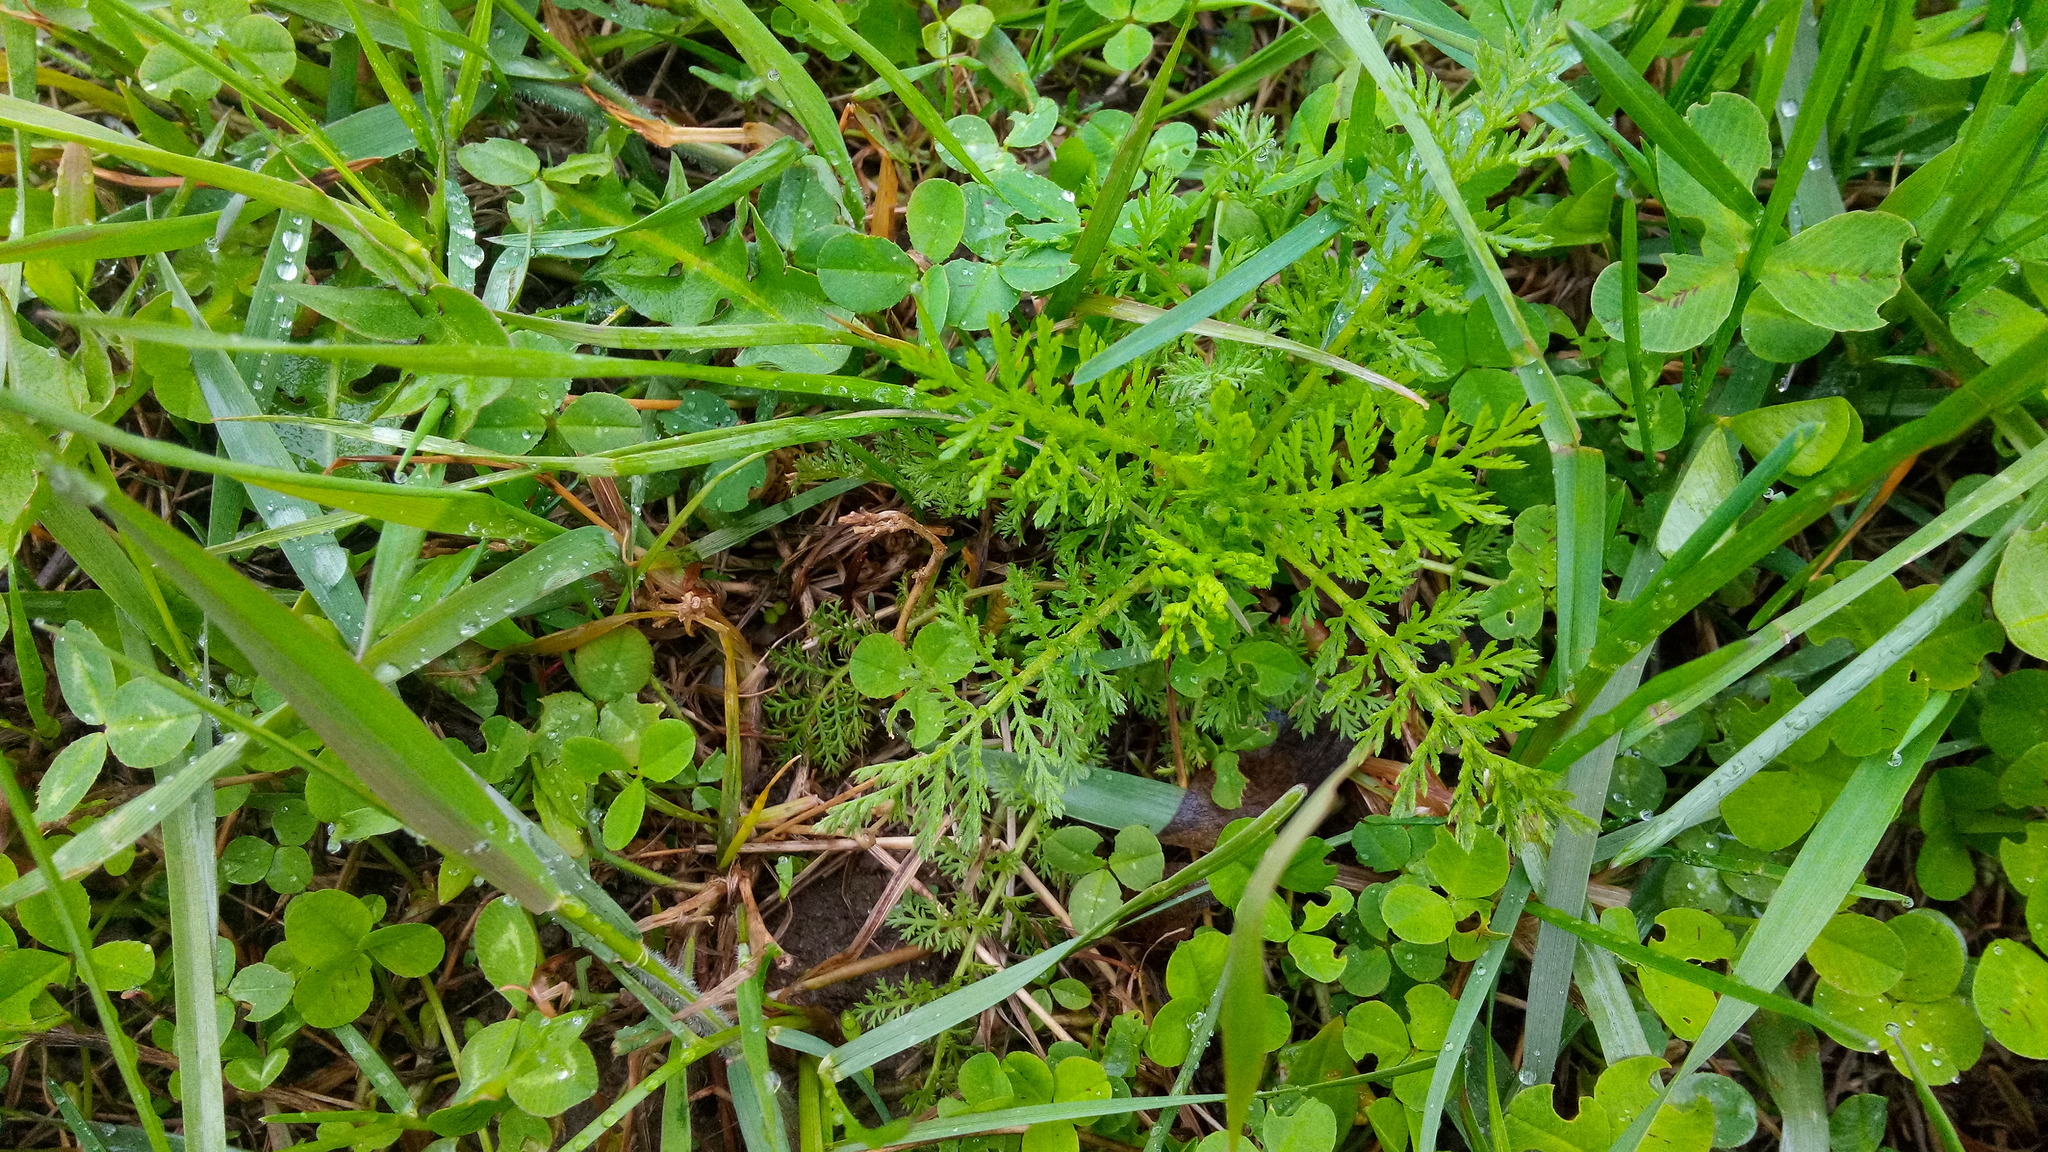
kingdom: Plantae
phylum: Tracheophyta
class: Magnoliopsida
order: Asterales
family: Asteraceae
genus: Cota
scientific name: Cota tinctoria
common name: Golden chamomile
